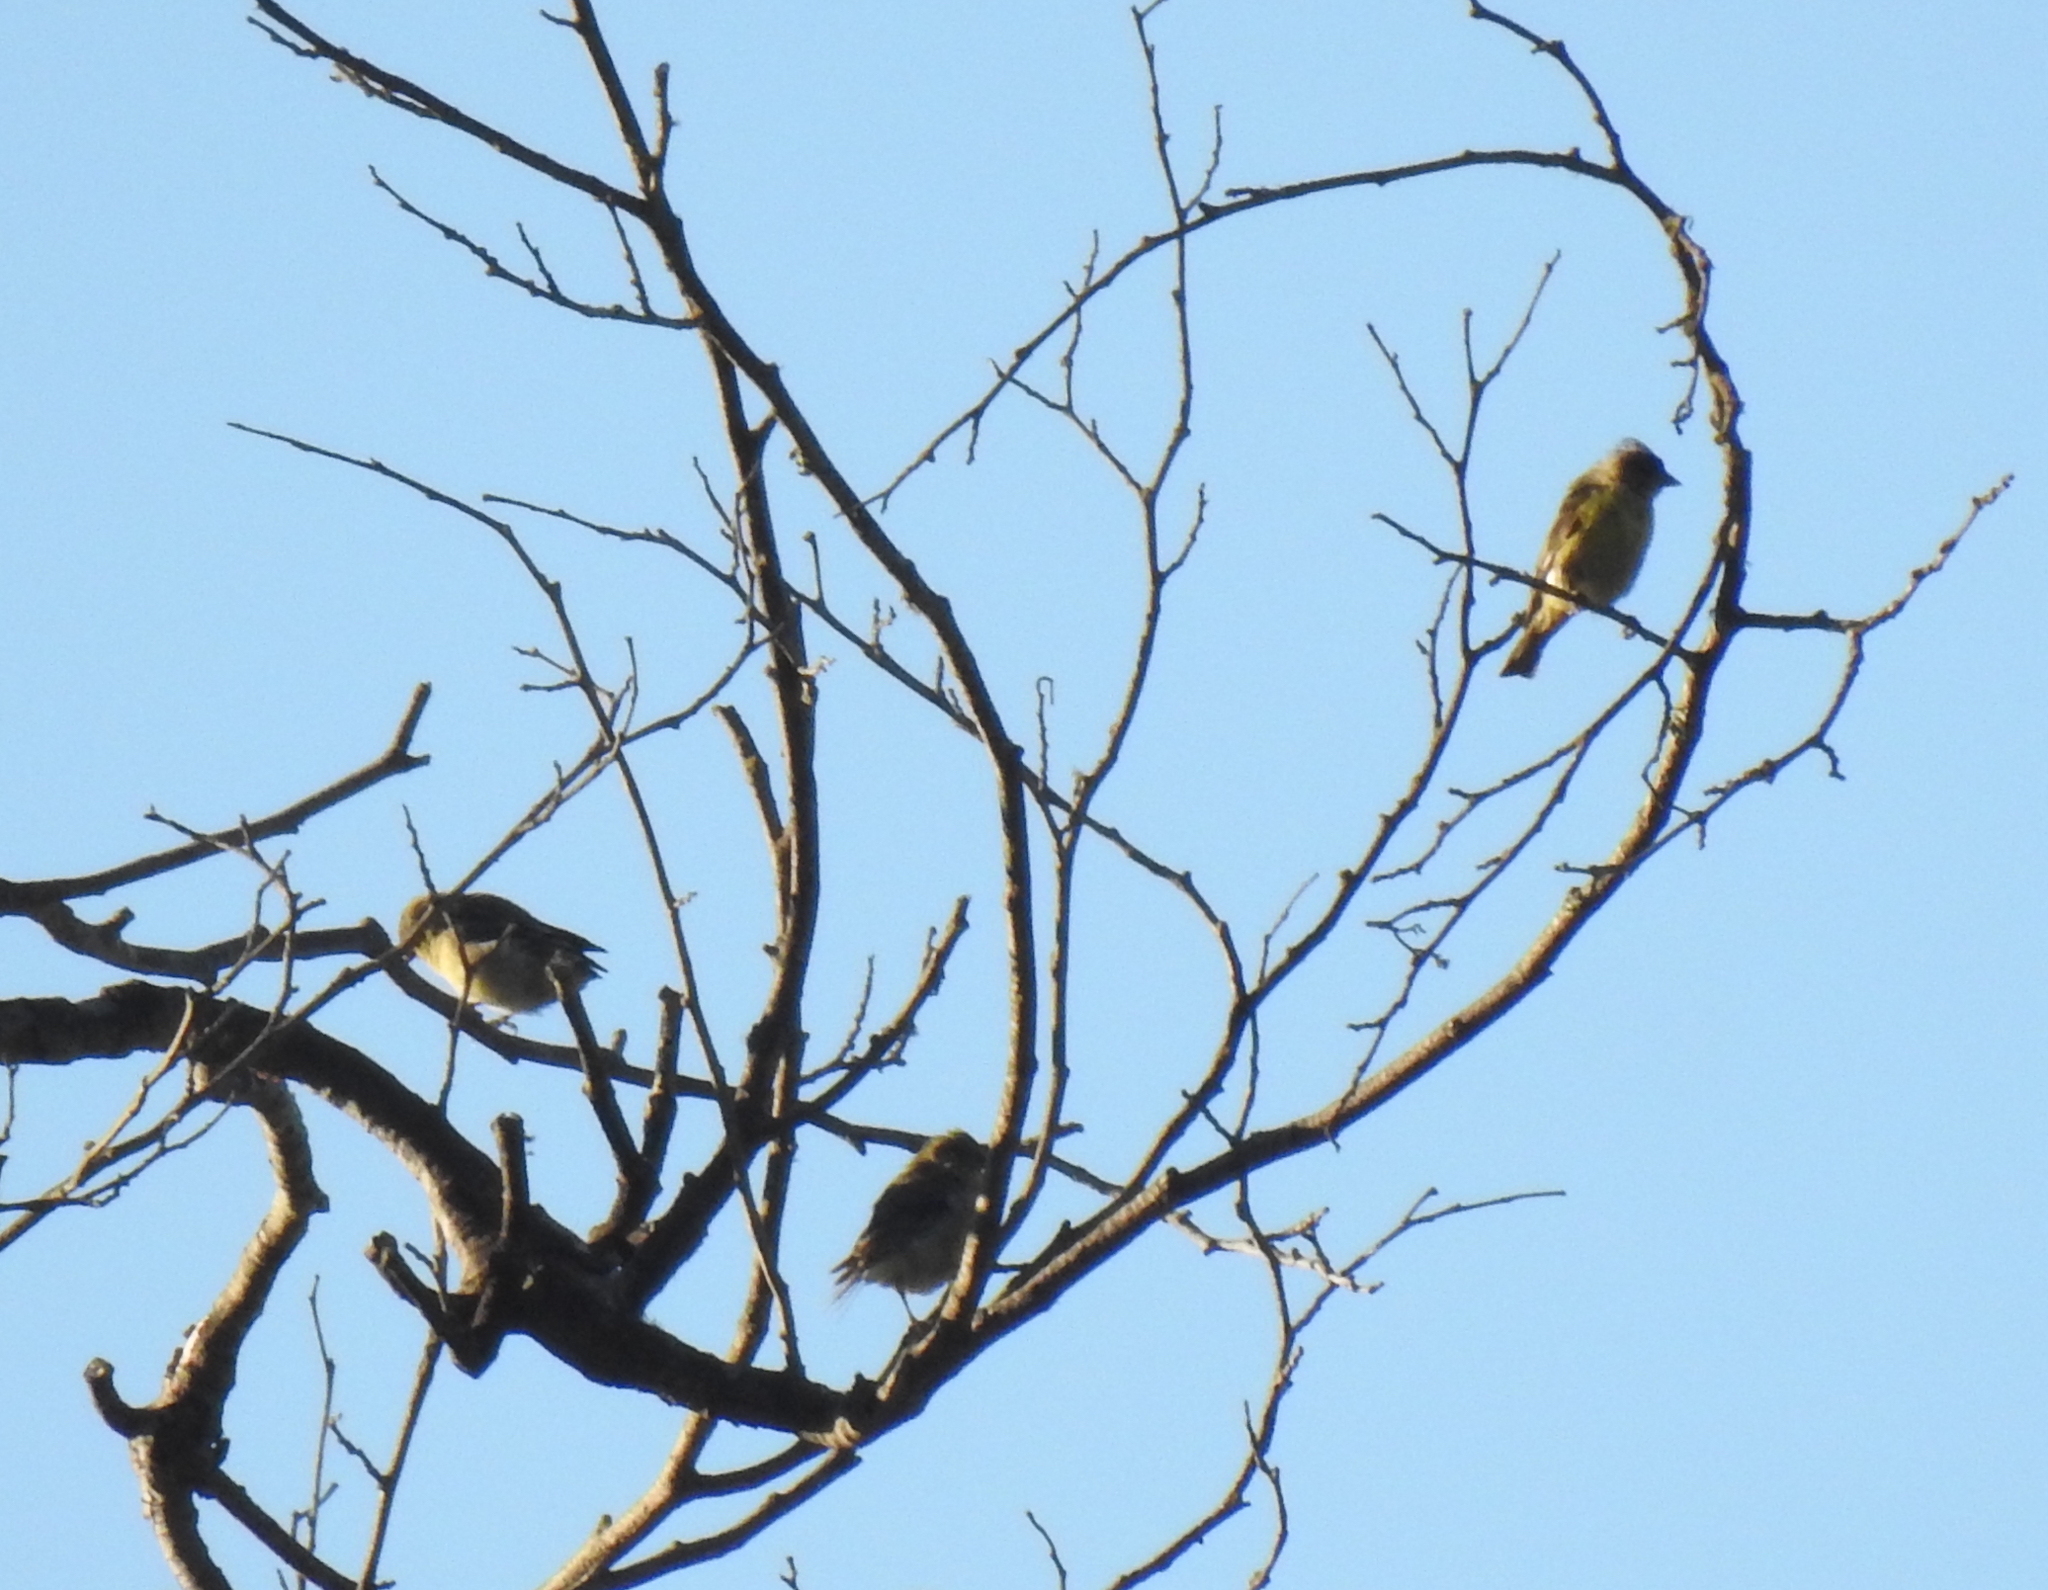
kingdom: Animalia
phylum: Chordata
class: Aves
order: Passeriformes
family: Fringillidae
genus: Spinus
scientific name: Spinus psaltria
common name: Lesser goldfinch
